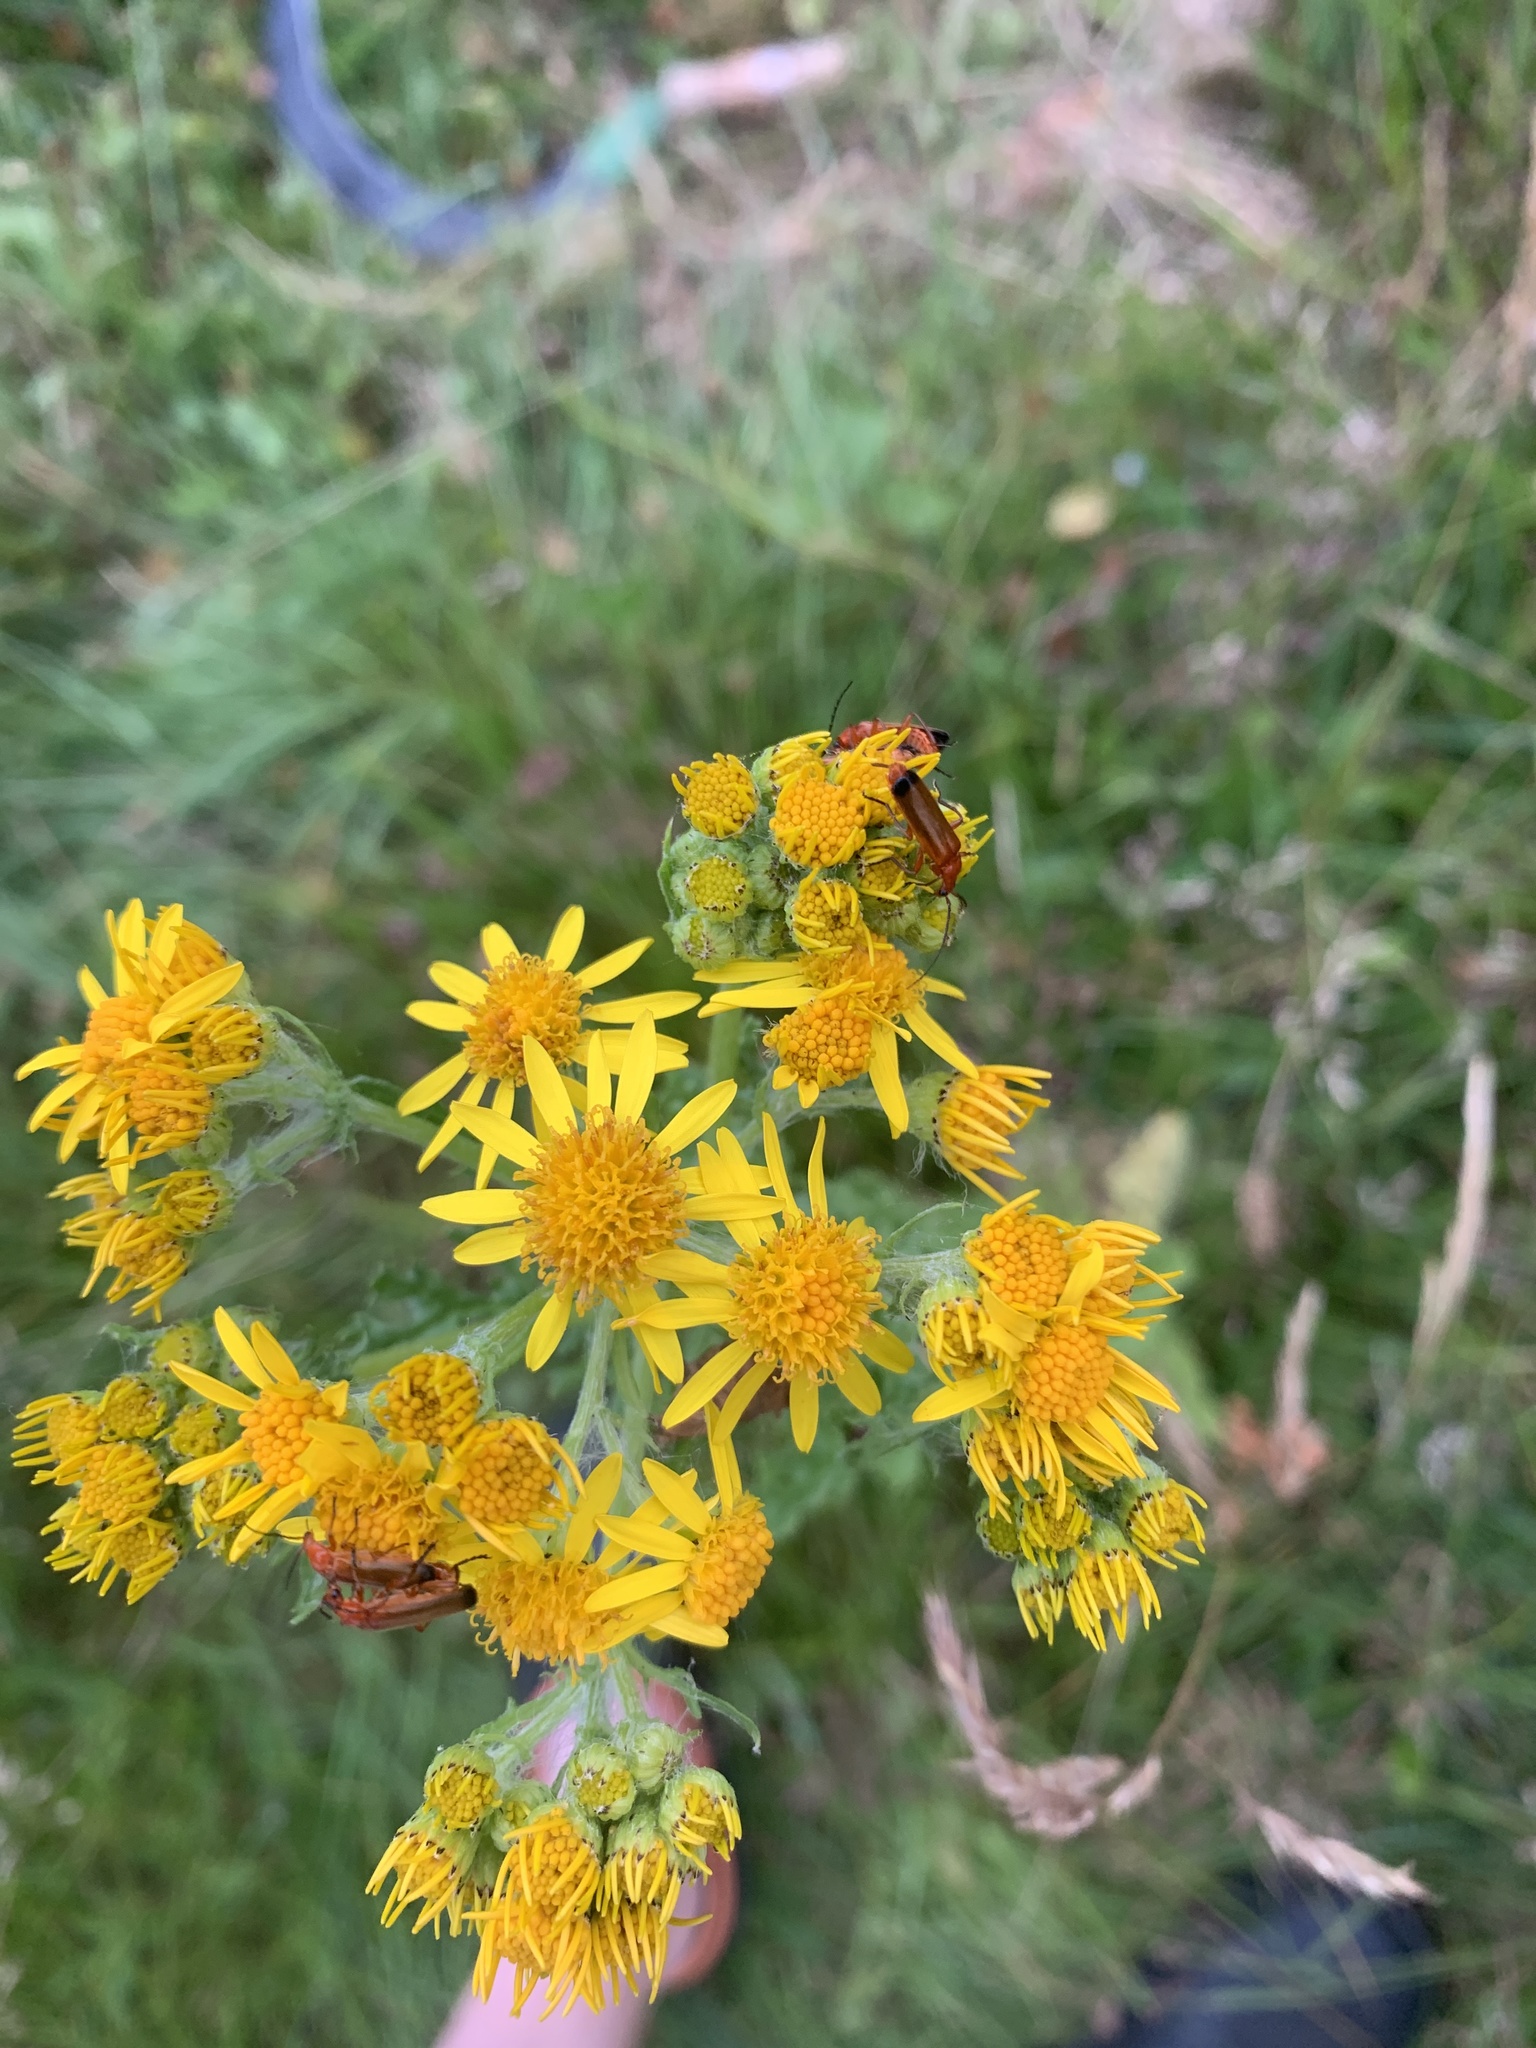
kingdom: Animalia
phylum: Arthropoda
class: Insecta
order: Coleoptera
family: Cantharidae
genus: Rhagonycha
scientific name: Rhagonycha fulva
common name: Common red soldier beetle
